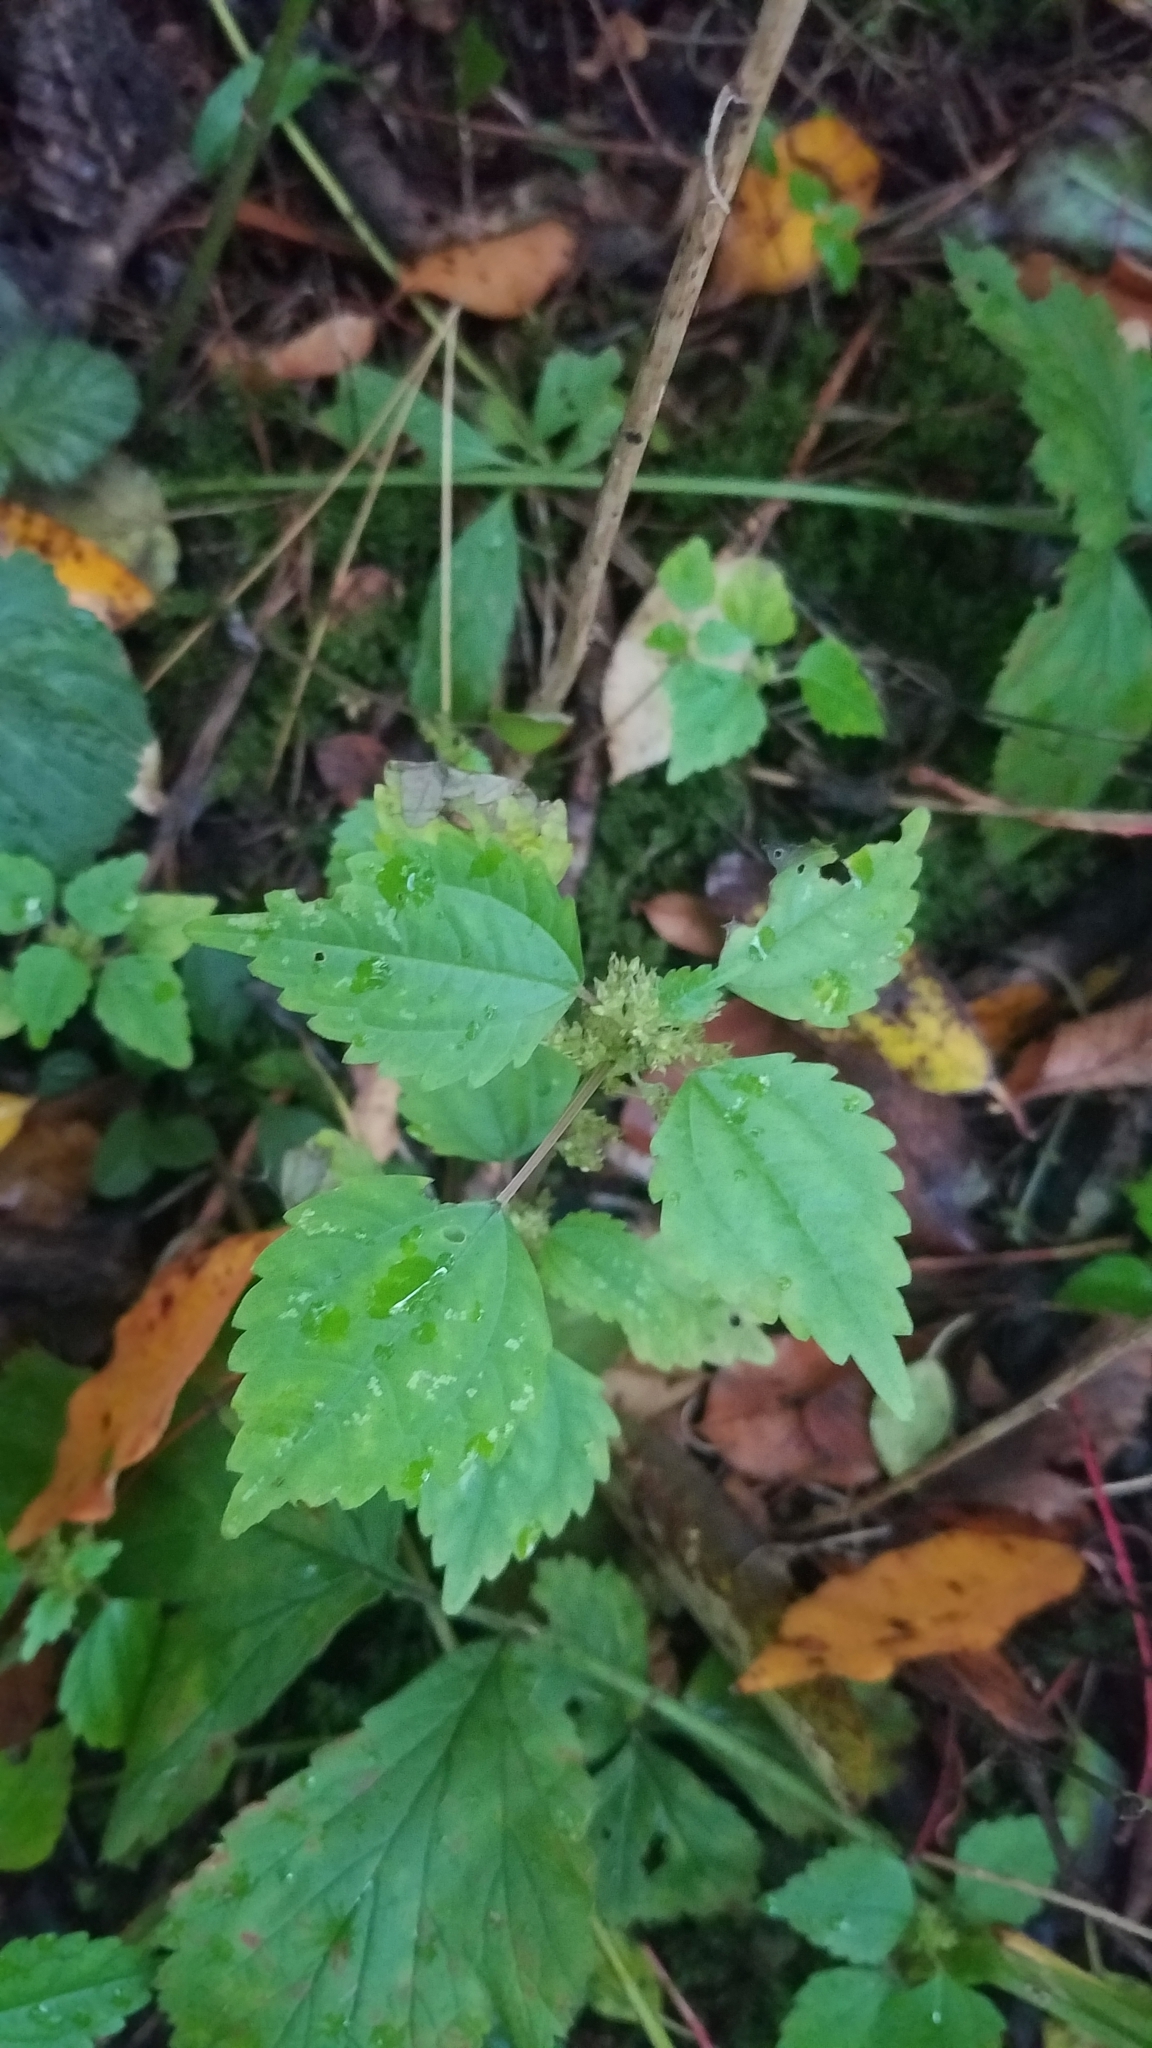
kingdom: Plantae
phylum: Tracheophyta
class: Magnoliopsida
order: Rosales
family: Urticaceae
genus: Pilea
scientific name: Pilea pumila
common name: Clearweed
